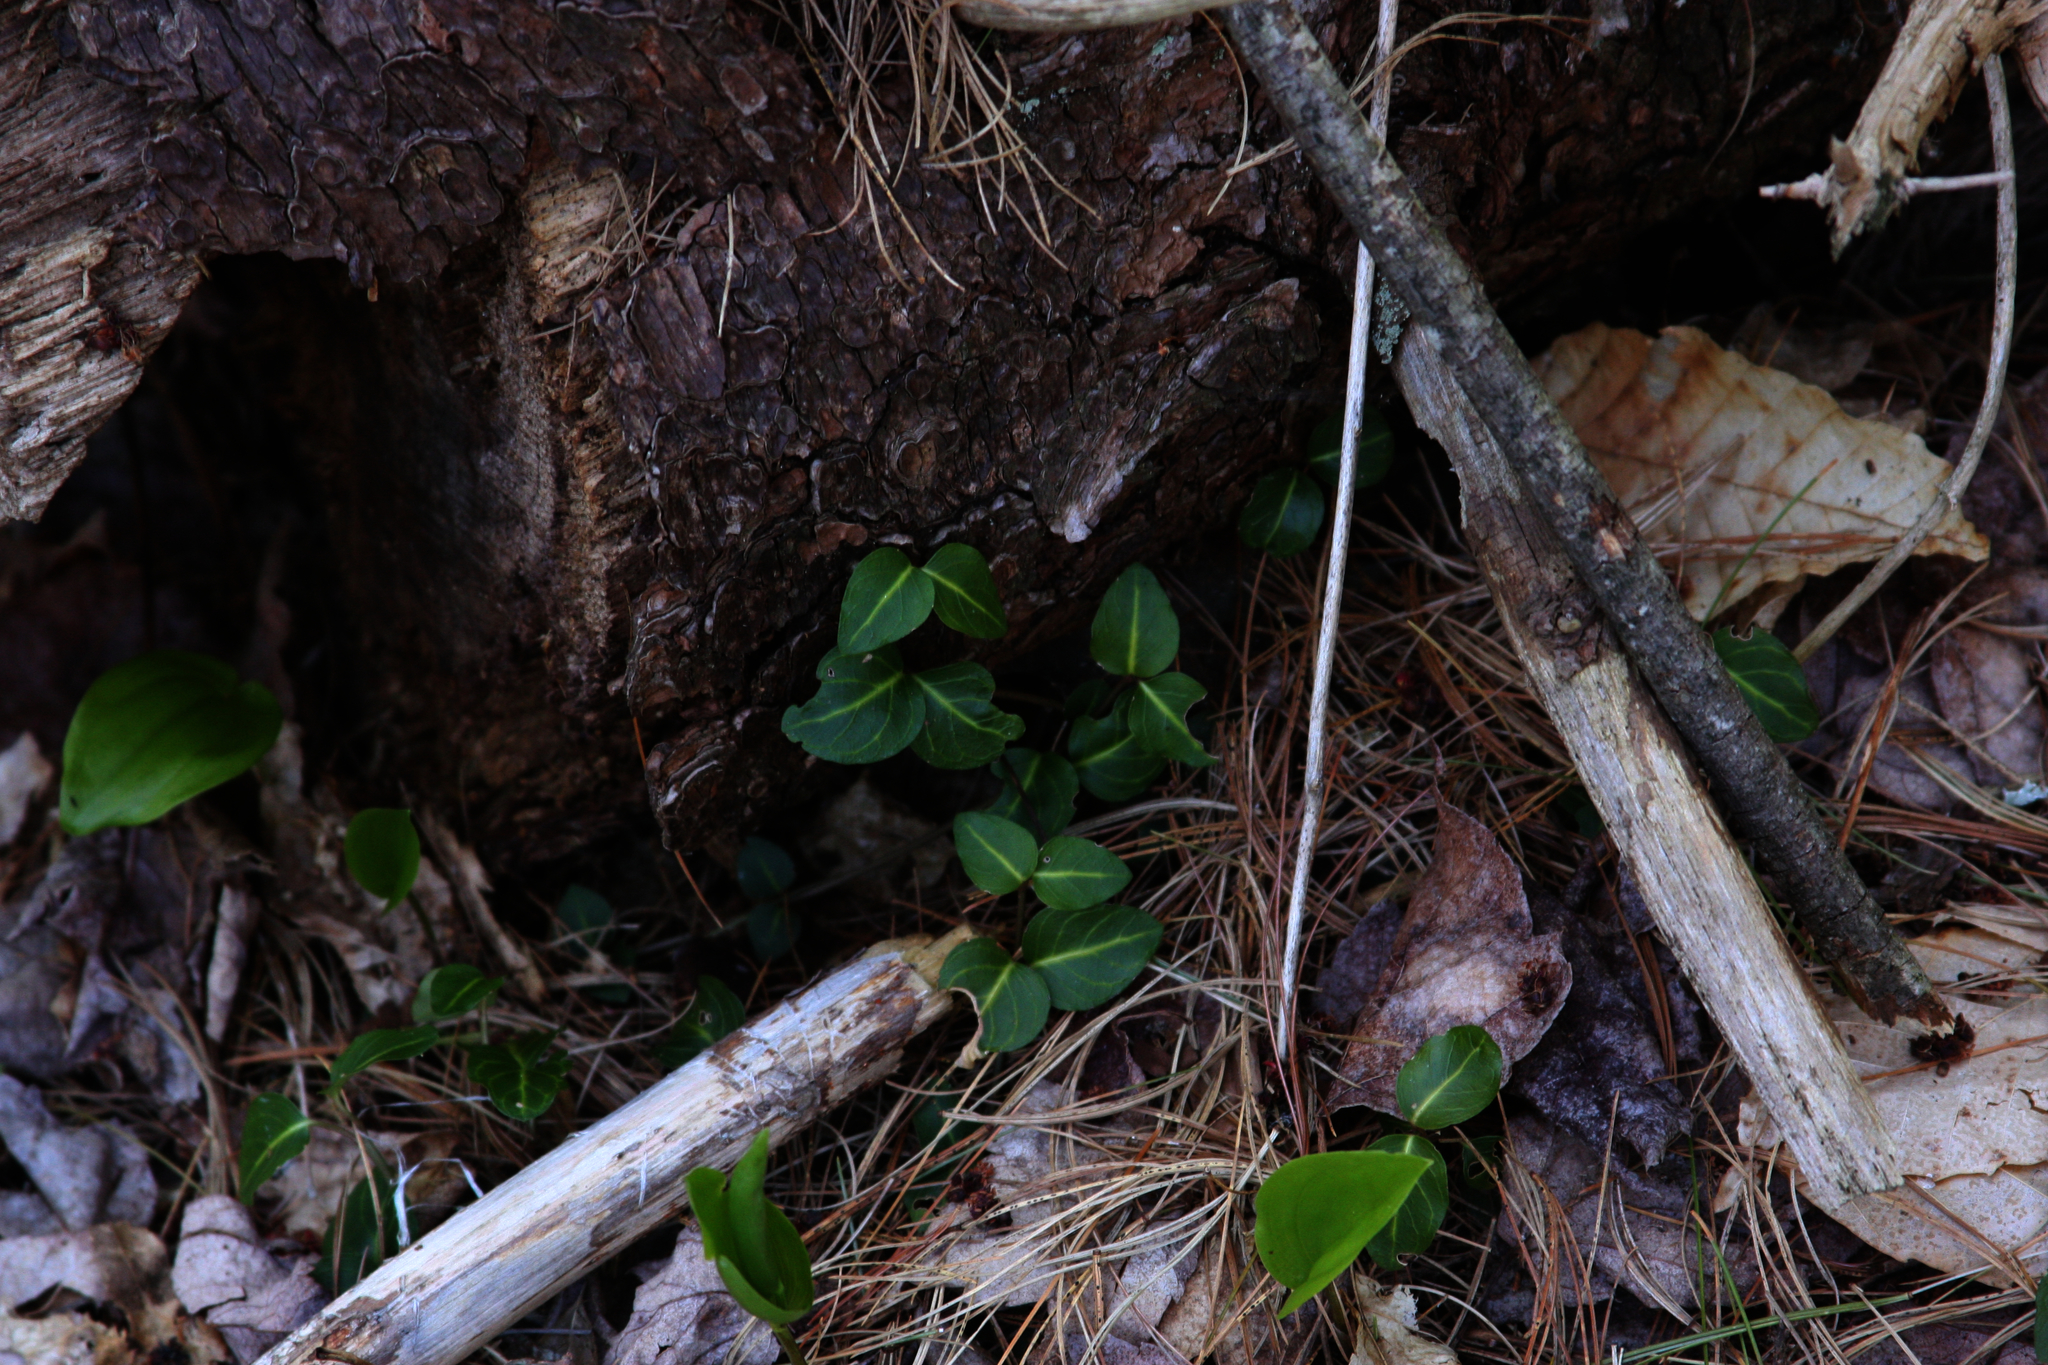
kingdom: Plantae
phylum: Tracheophyta
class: Magnoliopsida
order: Gentianales
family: Rubiaceae
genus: Mitchella
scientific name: Mitchella repens
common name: Partridge-berry
